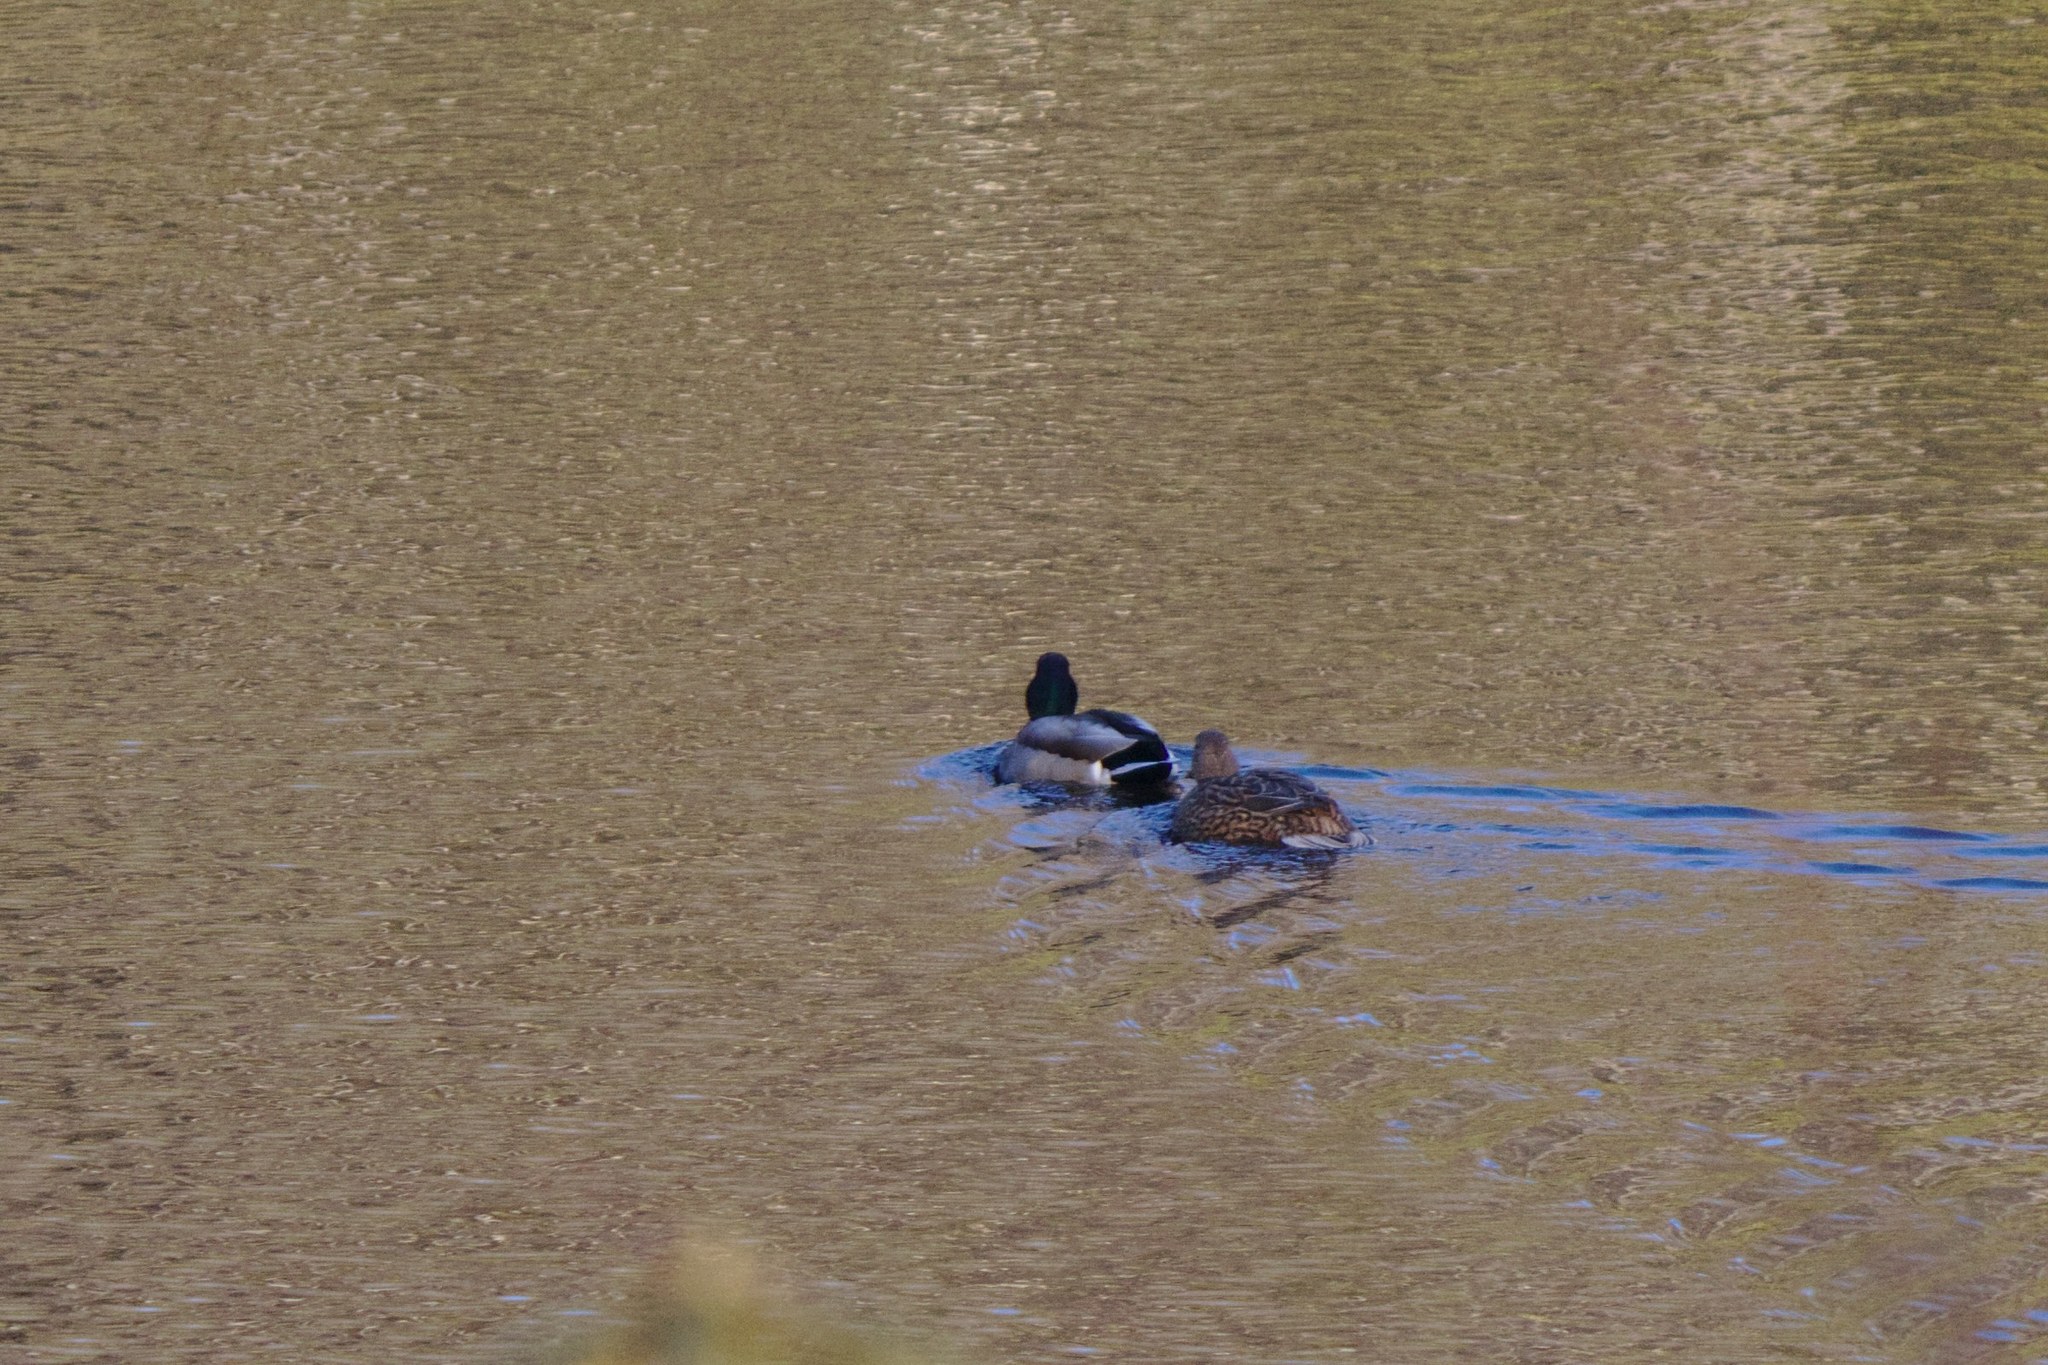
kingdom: Animalia
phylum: Chordata
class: Aves
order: Anseriformes
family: Anatidae
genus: Anas
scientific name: Anas platyrhynchos
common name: Mallard
